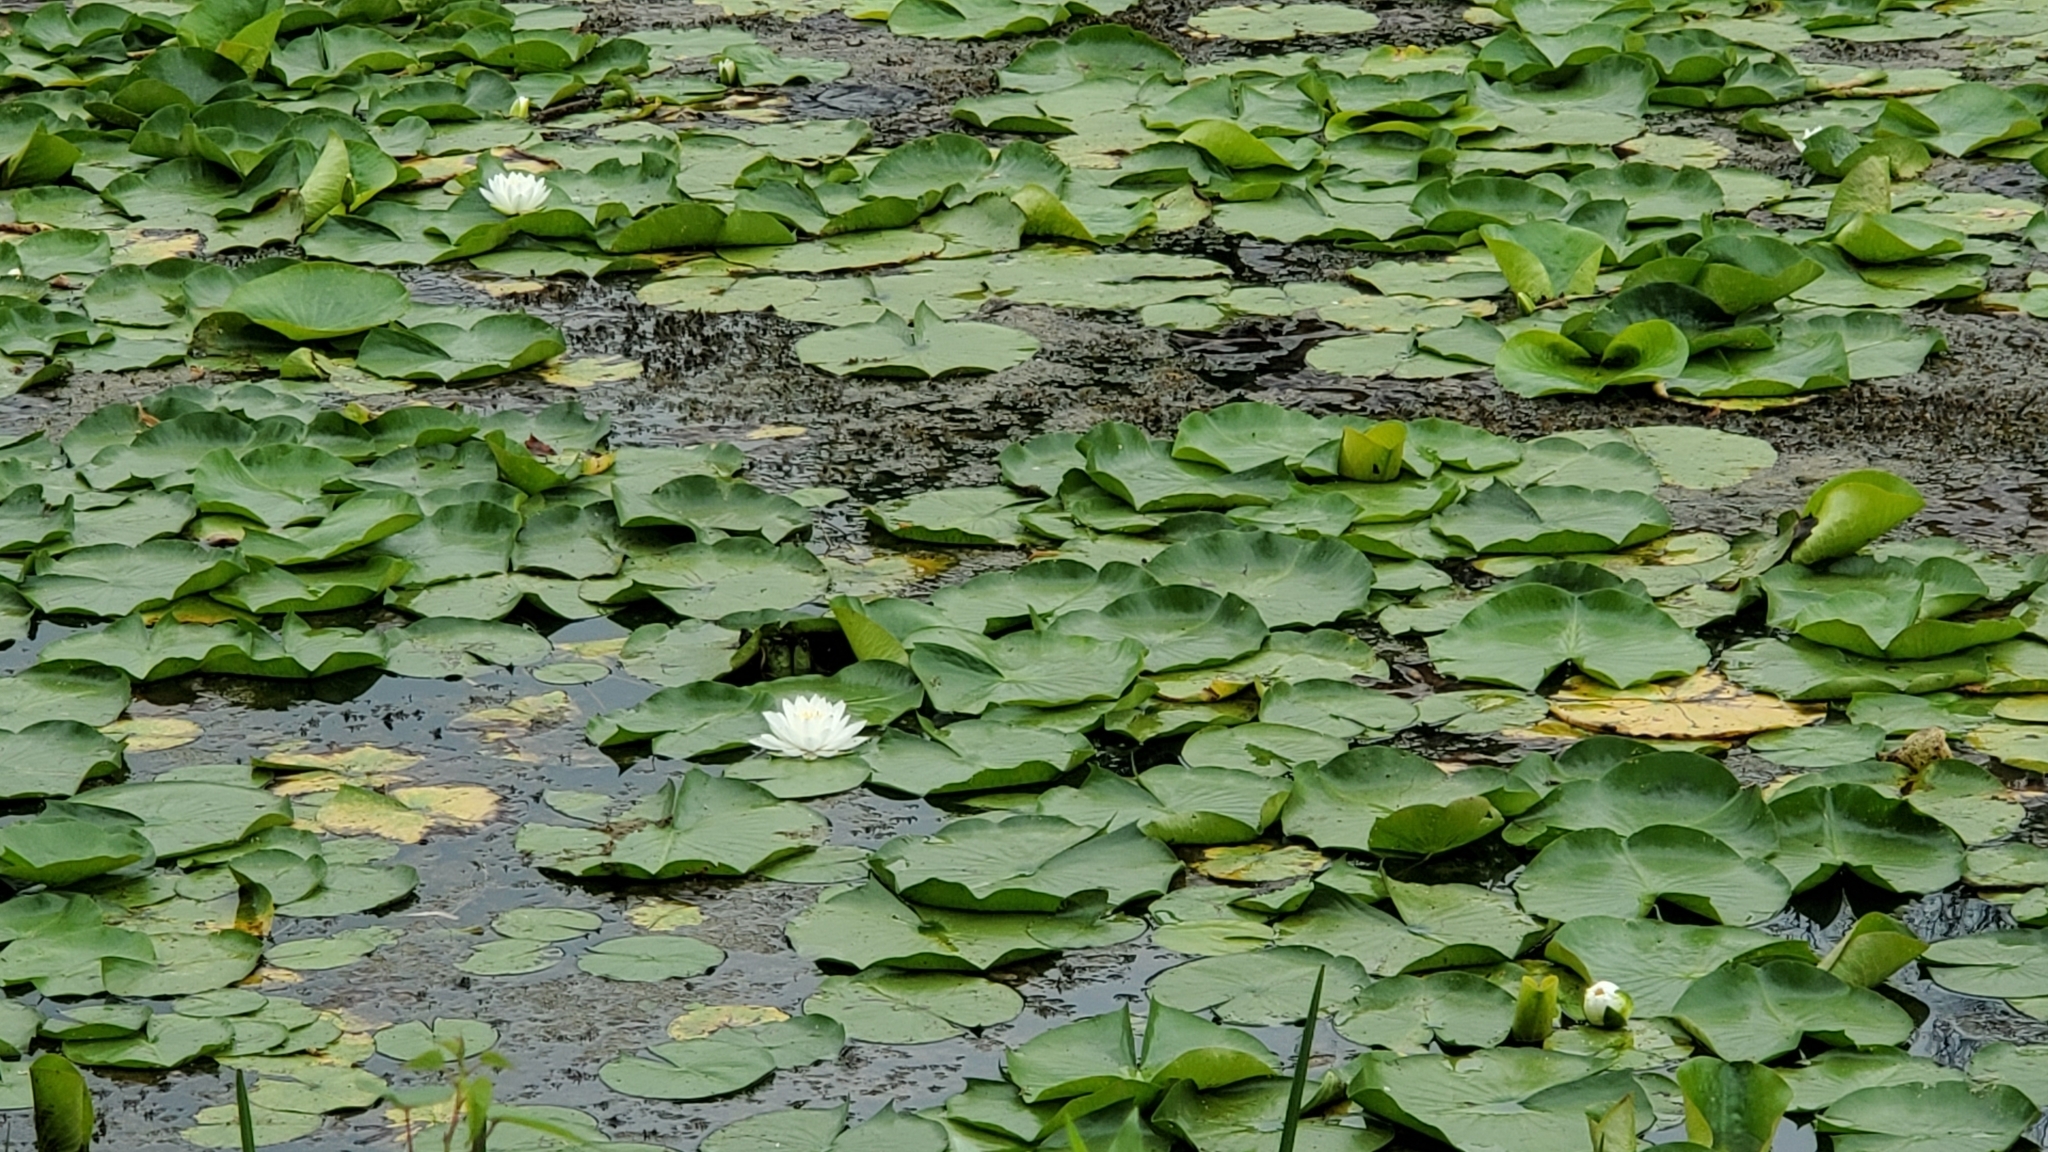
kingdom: Plantae
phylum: Tracheophyta
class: Magnoliopsida
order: Nymphaeales
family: Nymphaeaceae
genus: Nymphaea
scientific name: Nymphaea odorata
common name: Fragrant water-lily
